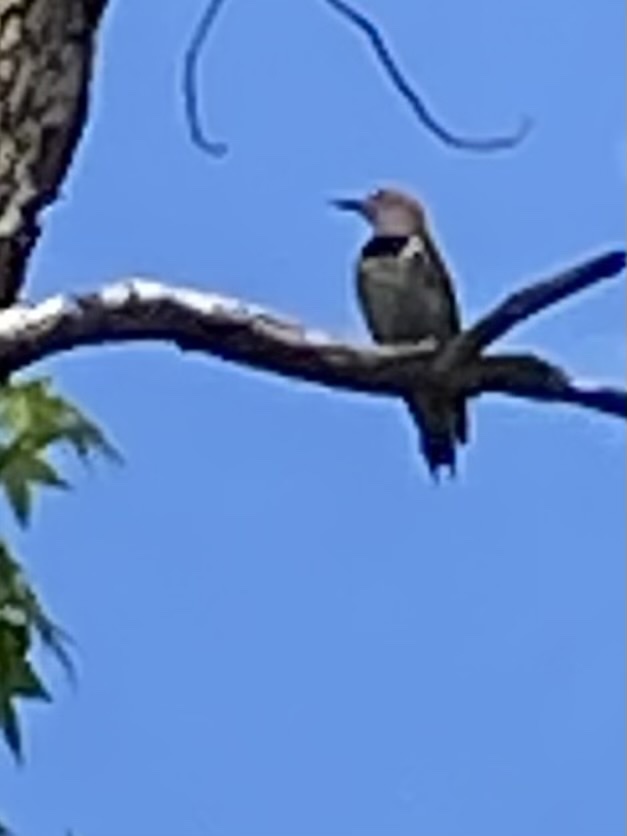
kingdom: Animalia
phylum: Chordata
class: Aves
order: Piciformes
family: Picidae
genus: Colaptes
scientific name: Colaptes auratus
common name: Northern flicker
